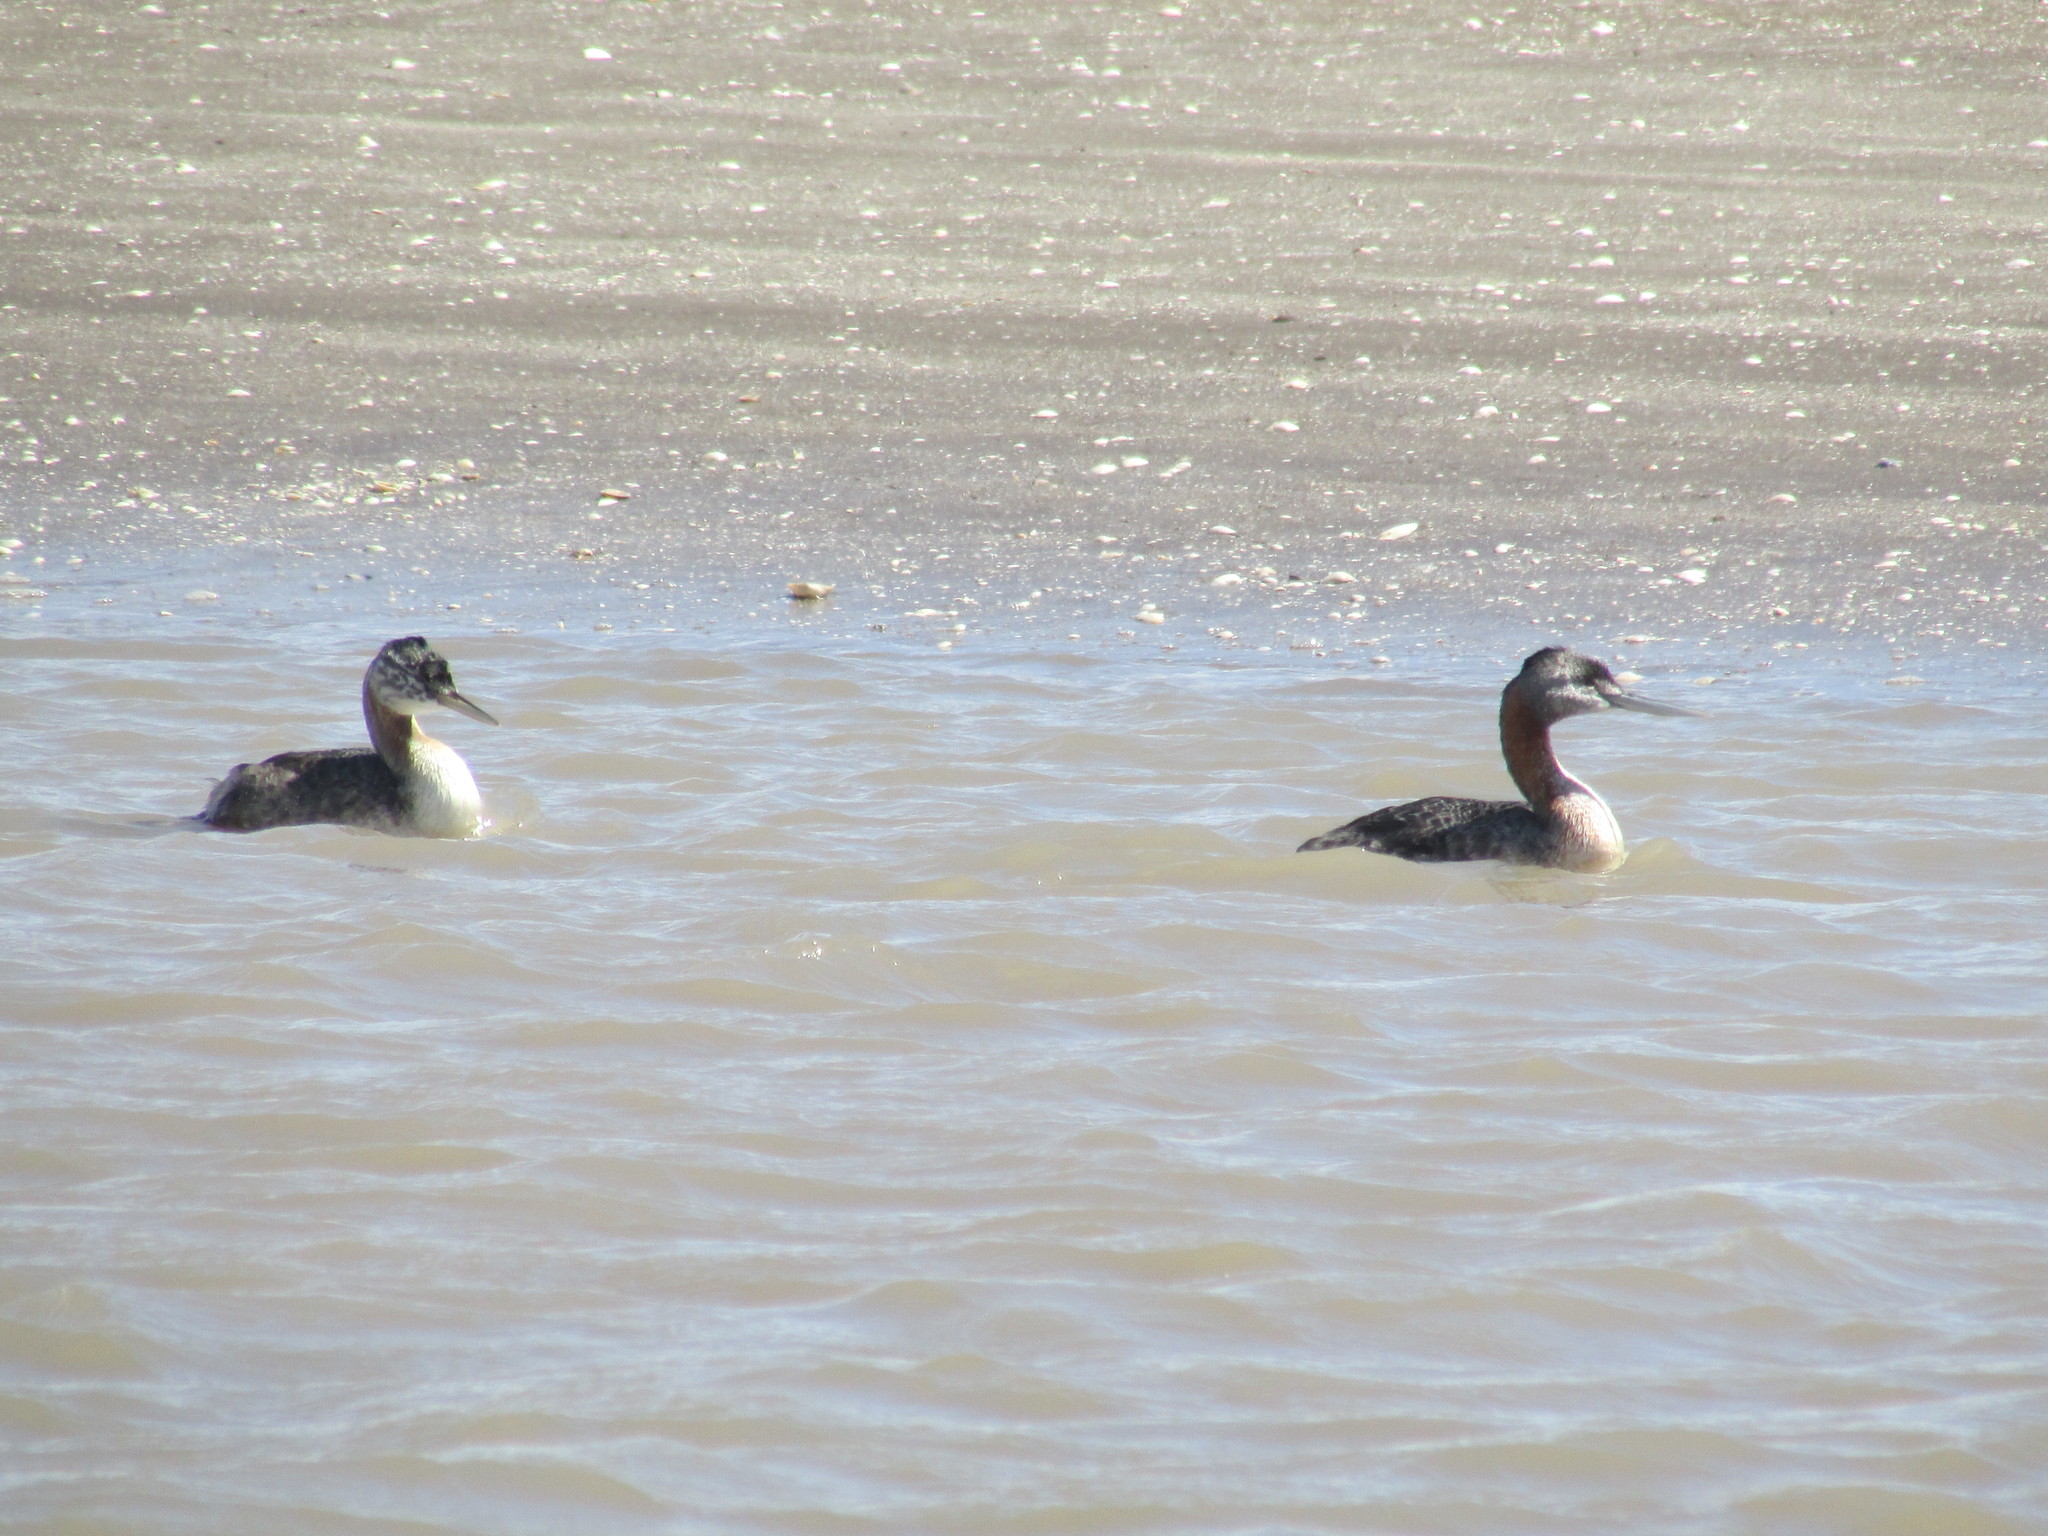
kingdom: Animalia
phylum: Chordata
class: Aves
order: Podicipediformes
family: Podicipedidae
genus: Podiceps
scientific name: Podiceps major
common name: Great grebe
